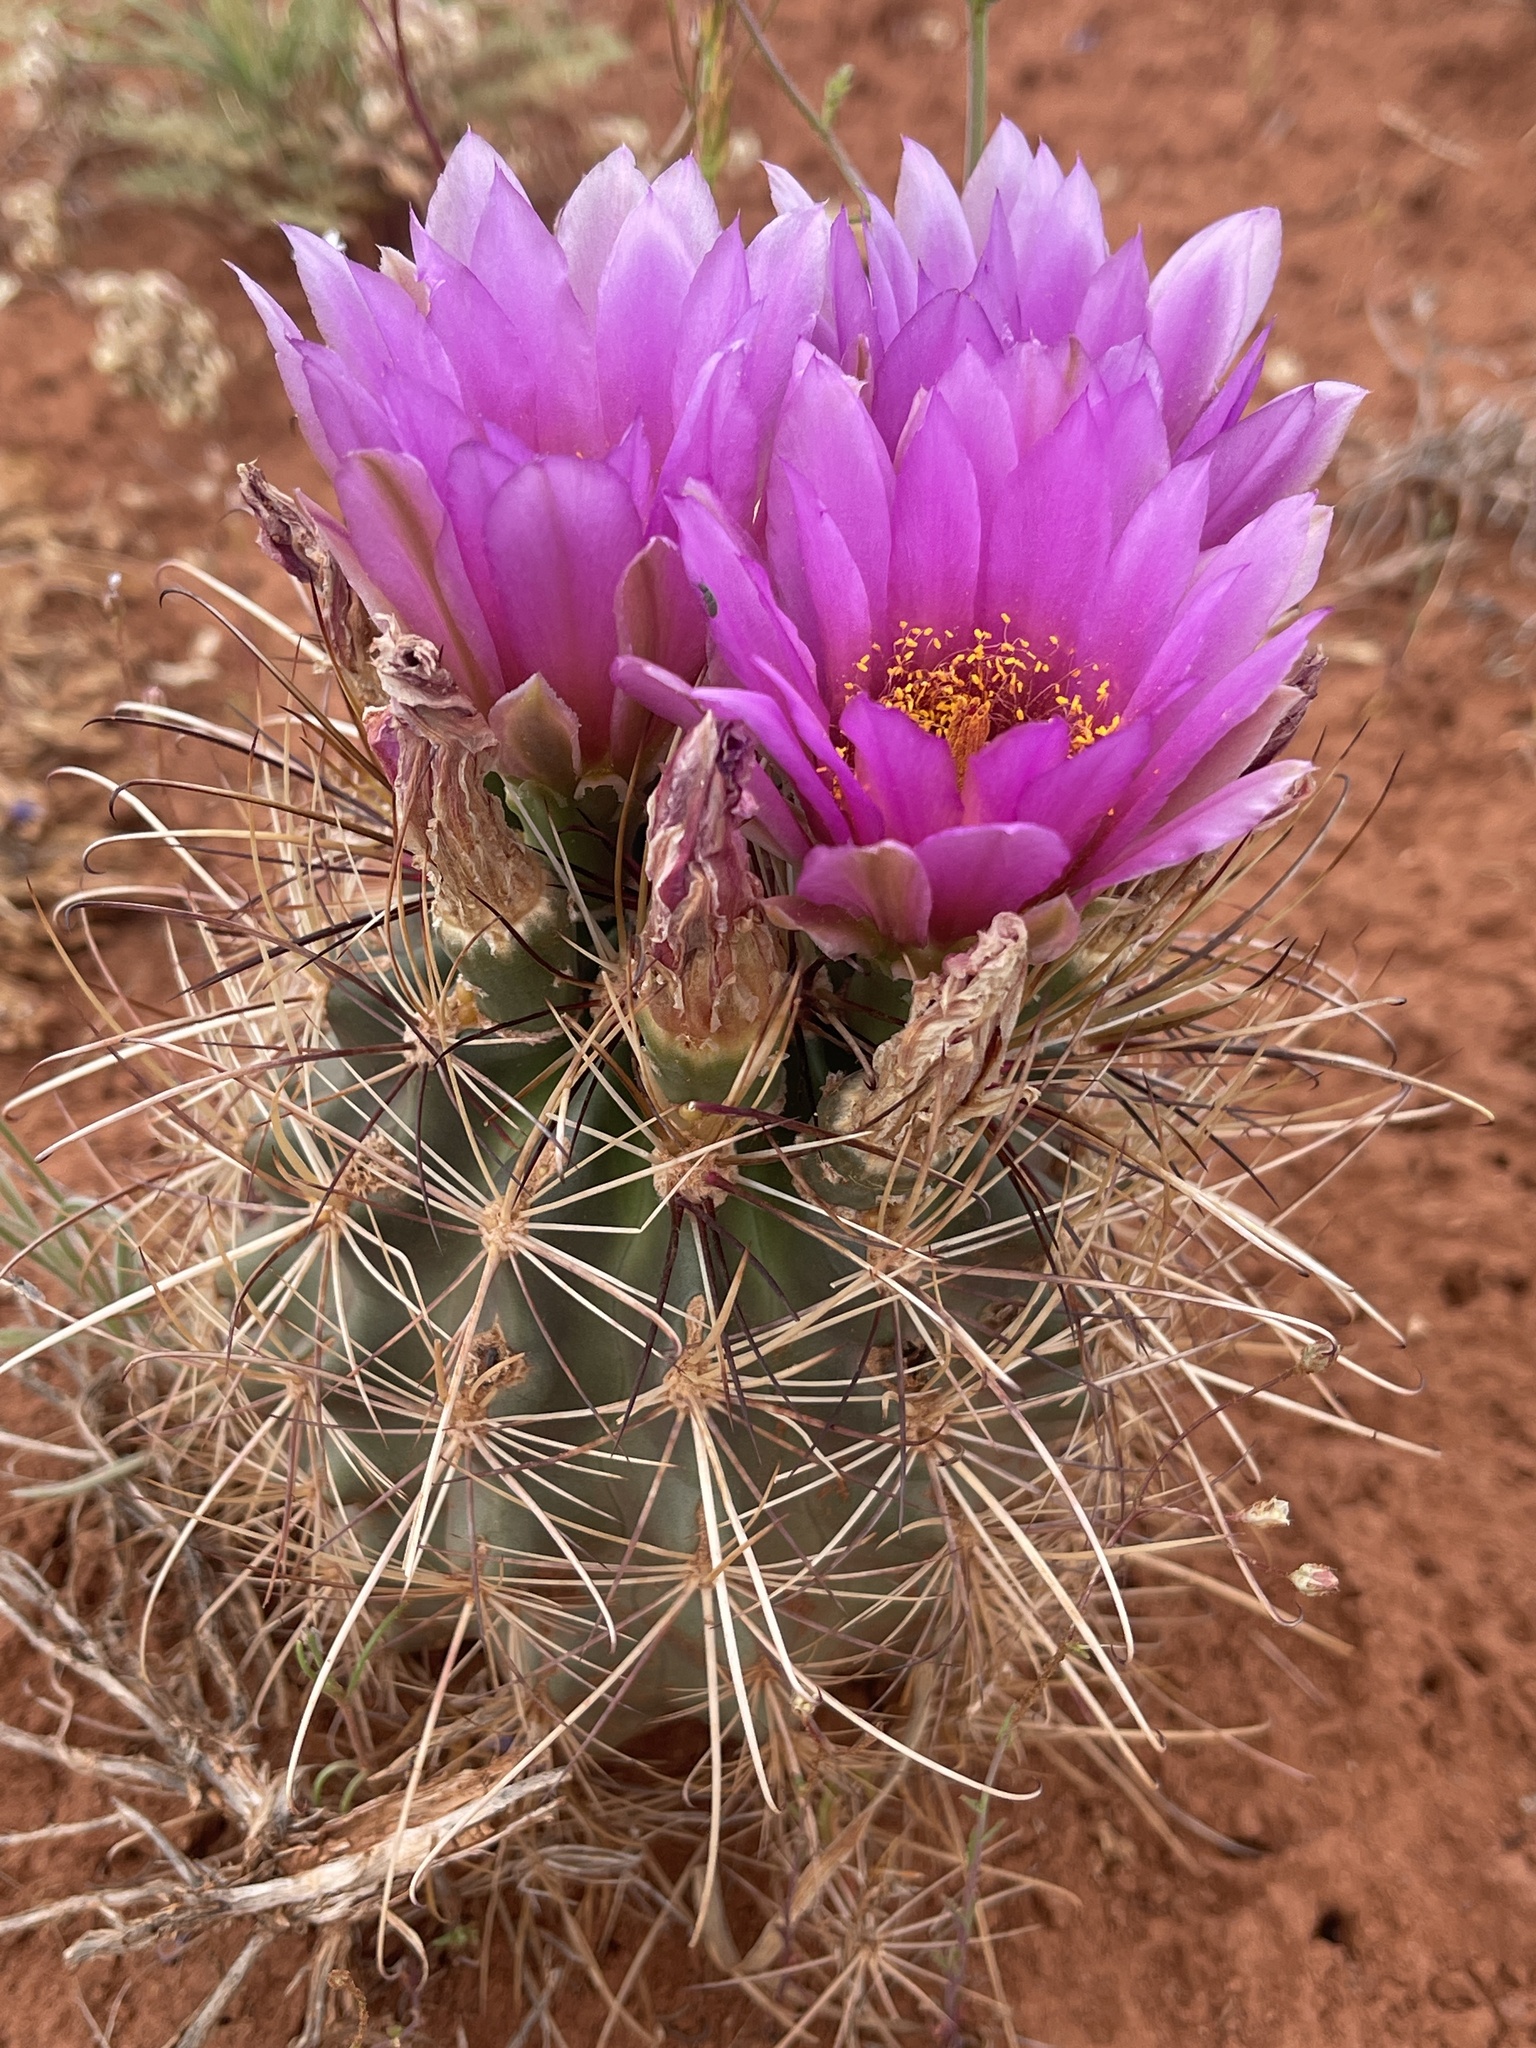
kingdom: Plantae
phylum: Tracheophyta
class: Magnoliopsida
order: Caryophyllales
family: Cactaceae
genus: Sclerocactus
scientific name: Sclerocactus parviflorus
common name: Small-flower fishhook cactus
